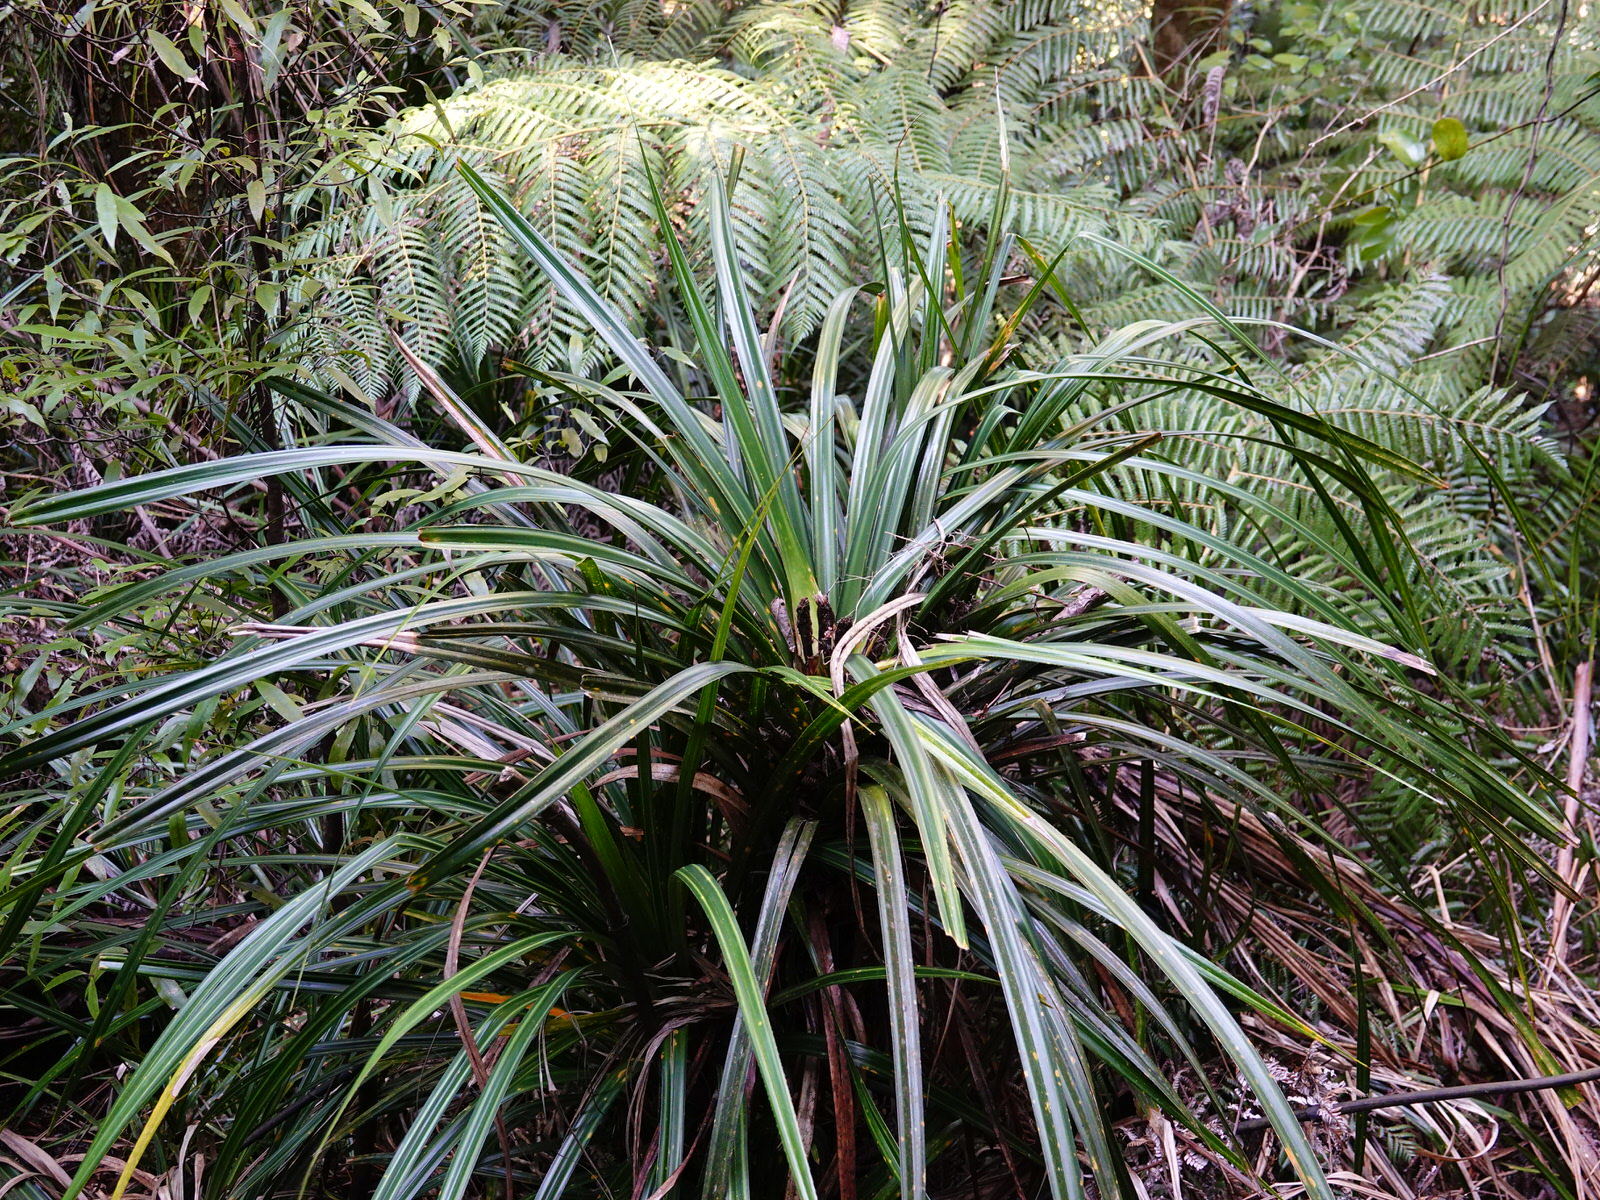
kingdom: Plantae
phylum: Tracheophyta
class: Liliopsida
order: Pandanales
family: Pandanaceae
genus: Freycinetia
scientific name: Freycinetia banksii
